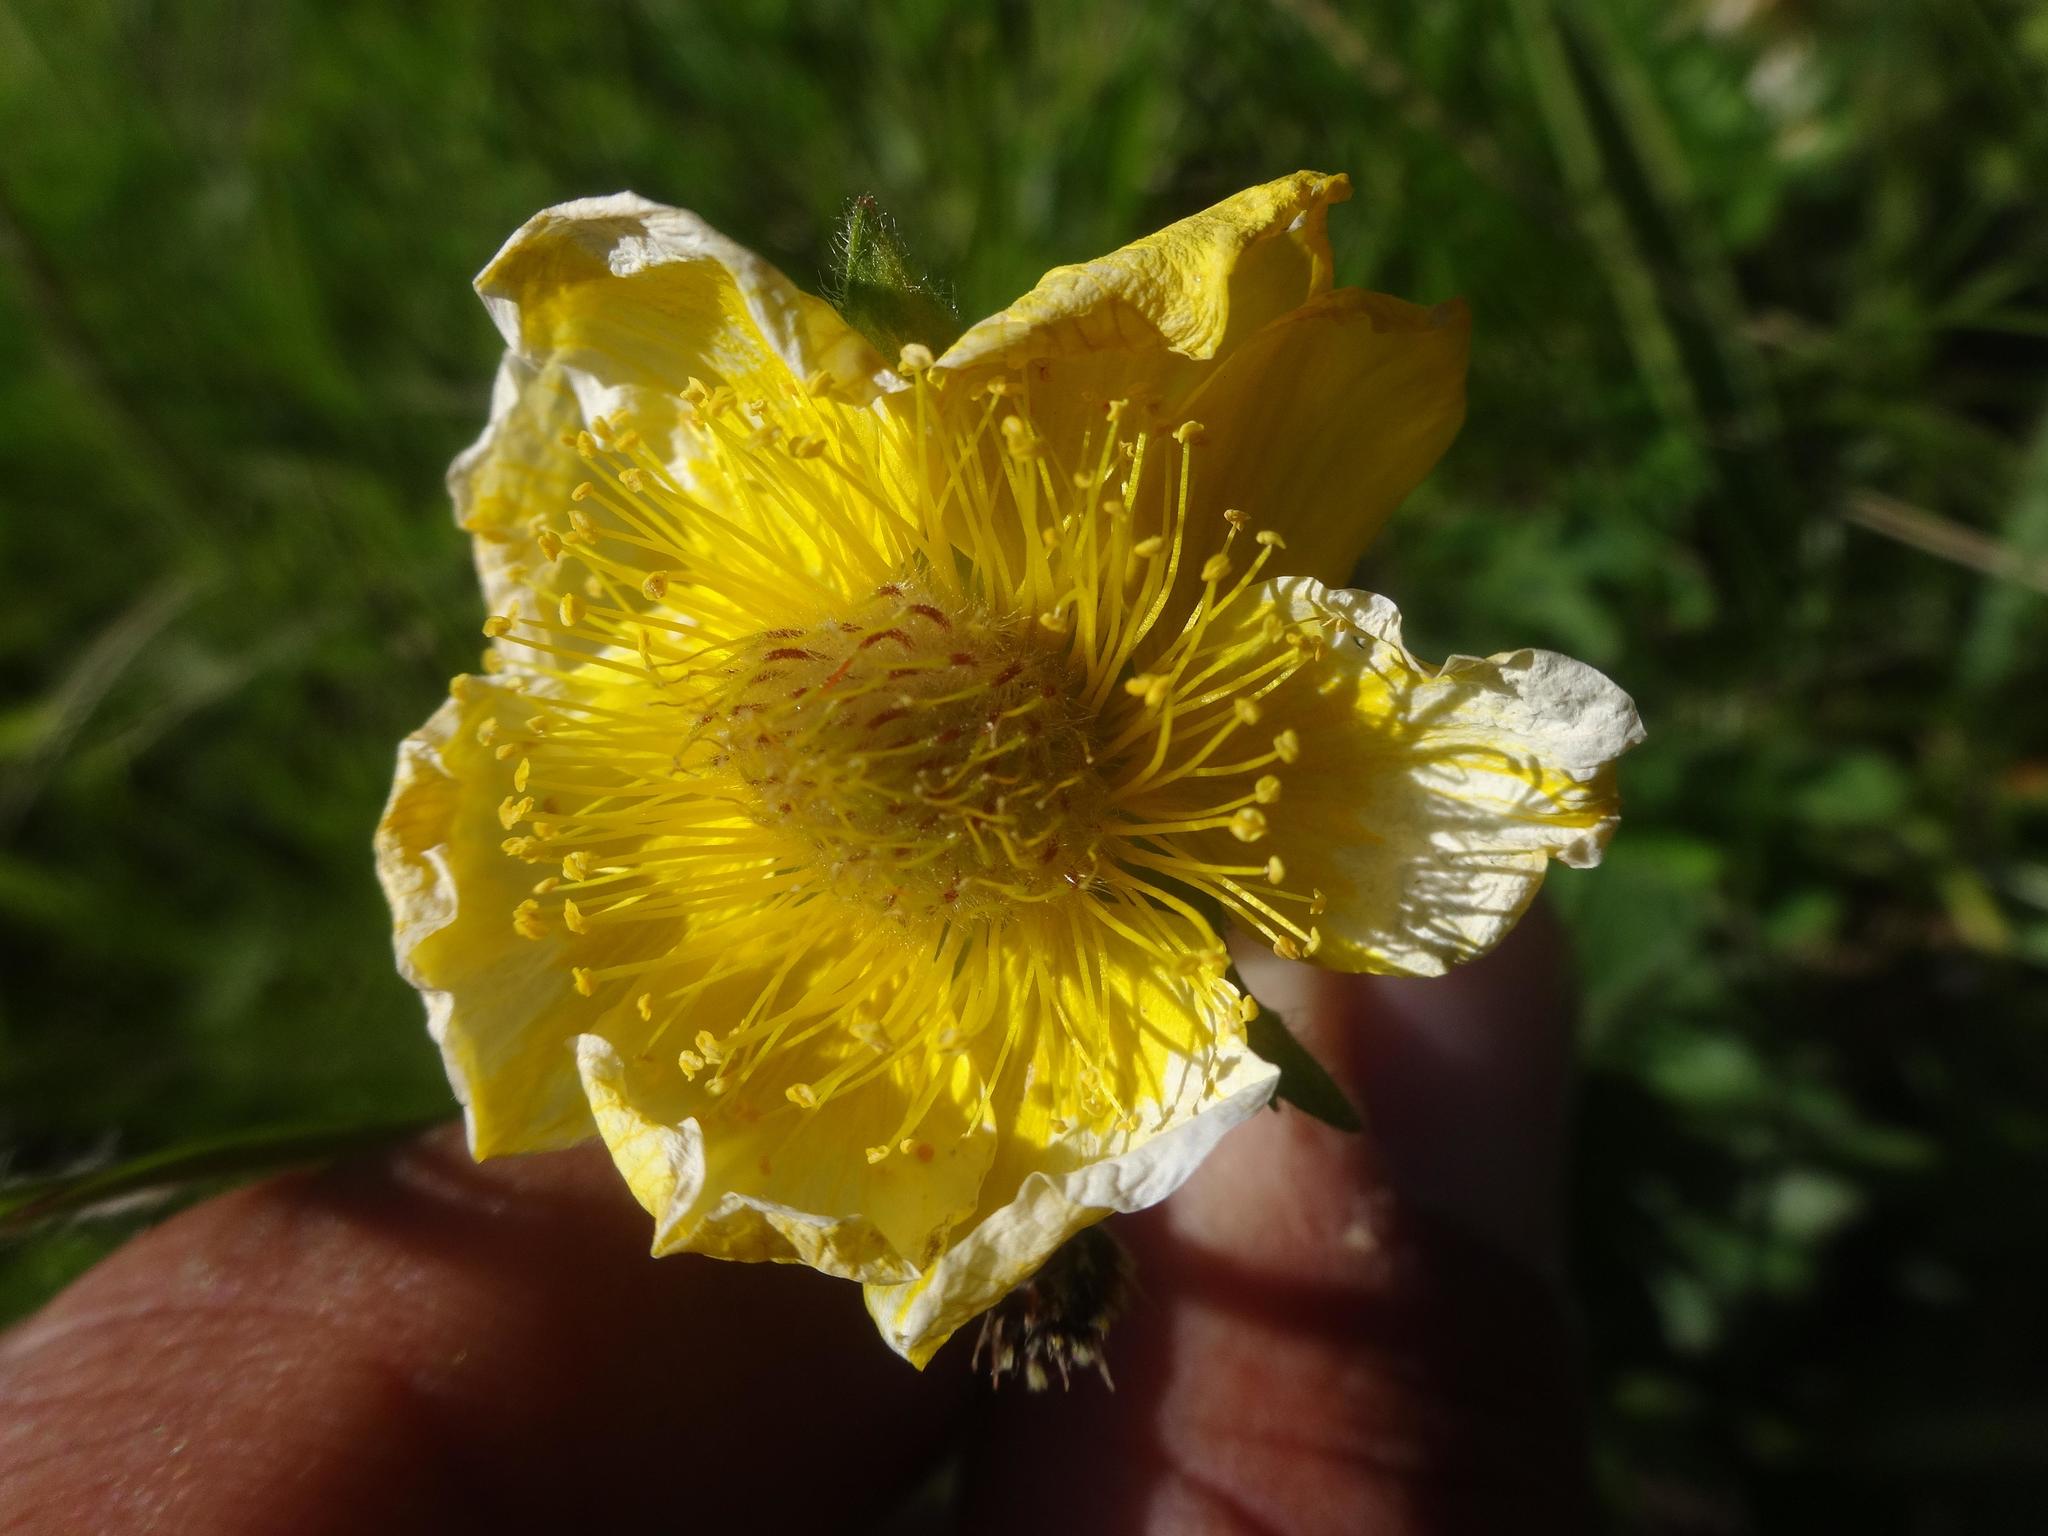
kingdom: Plantae
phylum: Tracheophyta
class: Magnoliopsida
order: Rosales
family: Rosaceae
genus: Geum
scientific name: Geum montanum
